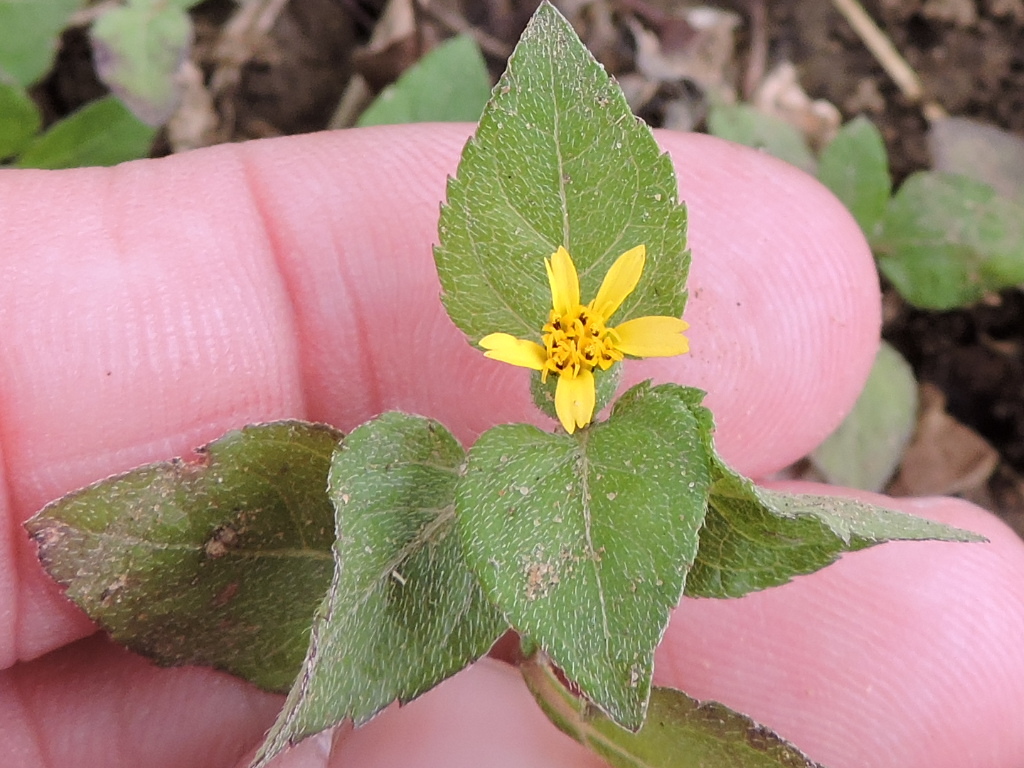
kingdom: Plantae
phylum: Tracheophyta
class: Magnoliopsida
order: Asterales
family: Asteraceae
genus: Calyptocarpus
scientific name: Calyptocarpus vialis
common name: Straggler daisy
